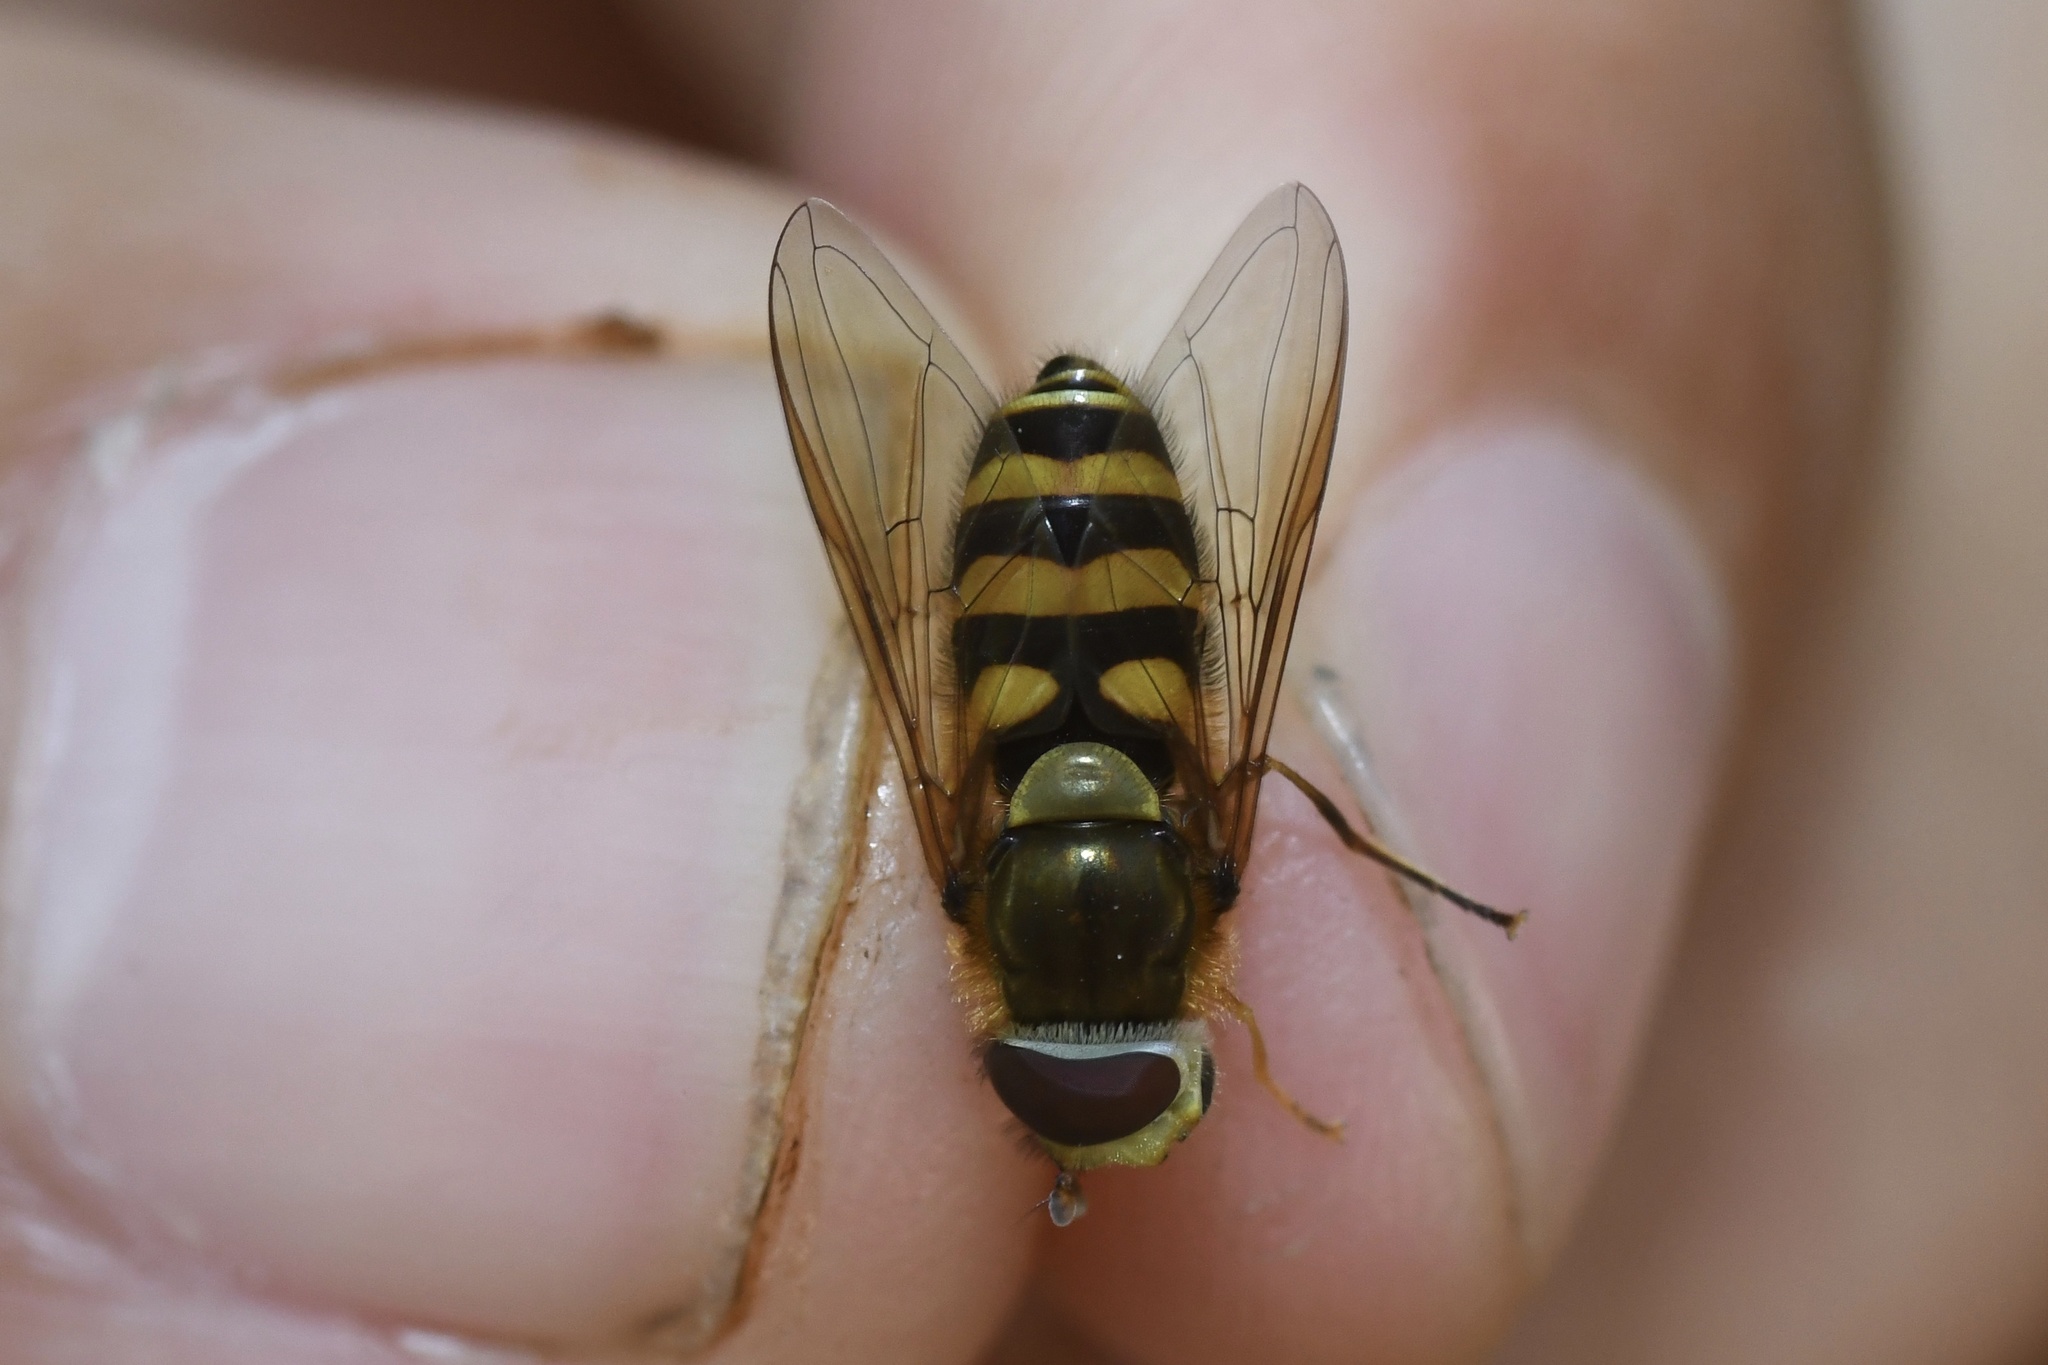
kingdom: Animalia
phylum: Arthropoda
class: Insecta
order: Diptera
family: Syrphidae
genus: Syrphus
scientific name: Syrphus
